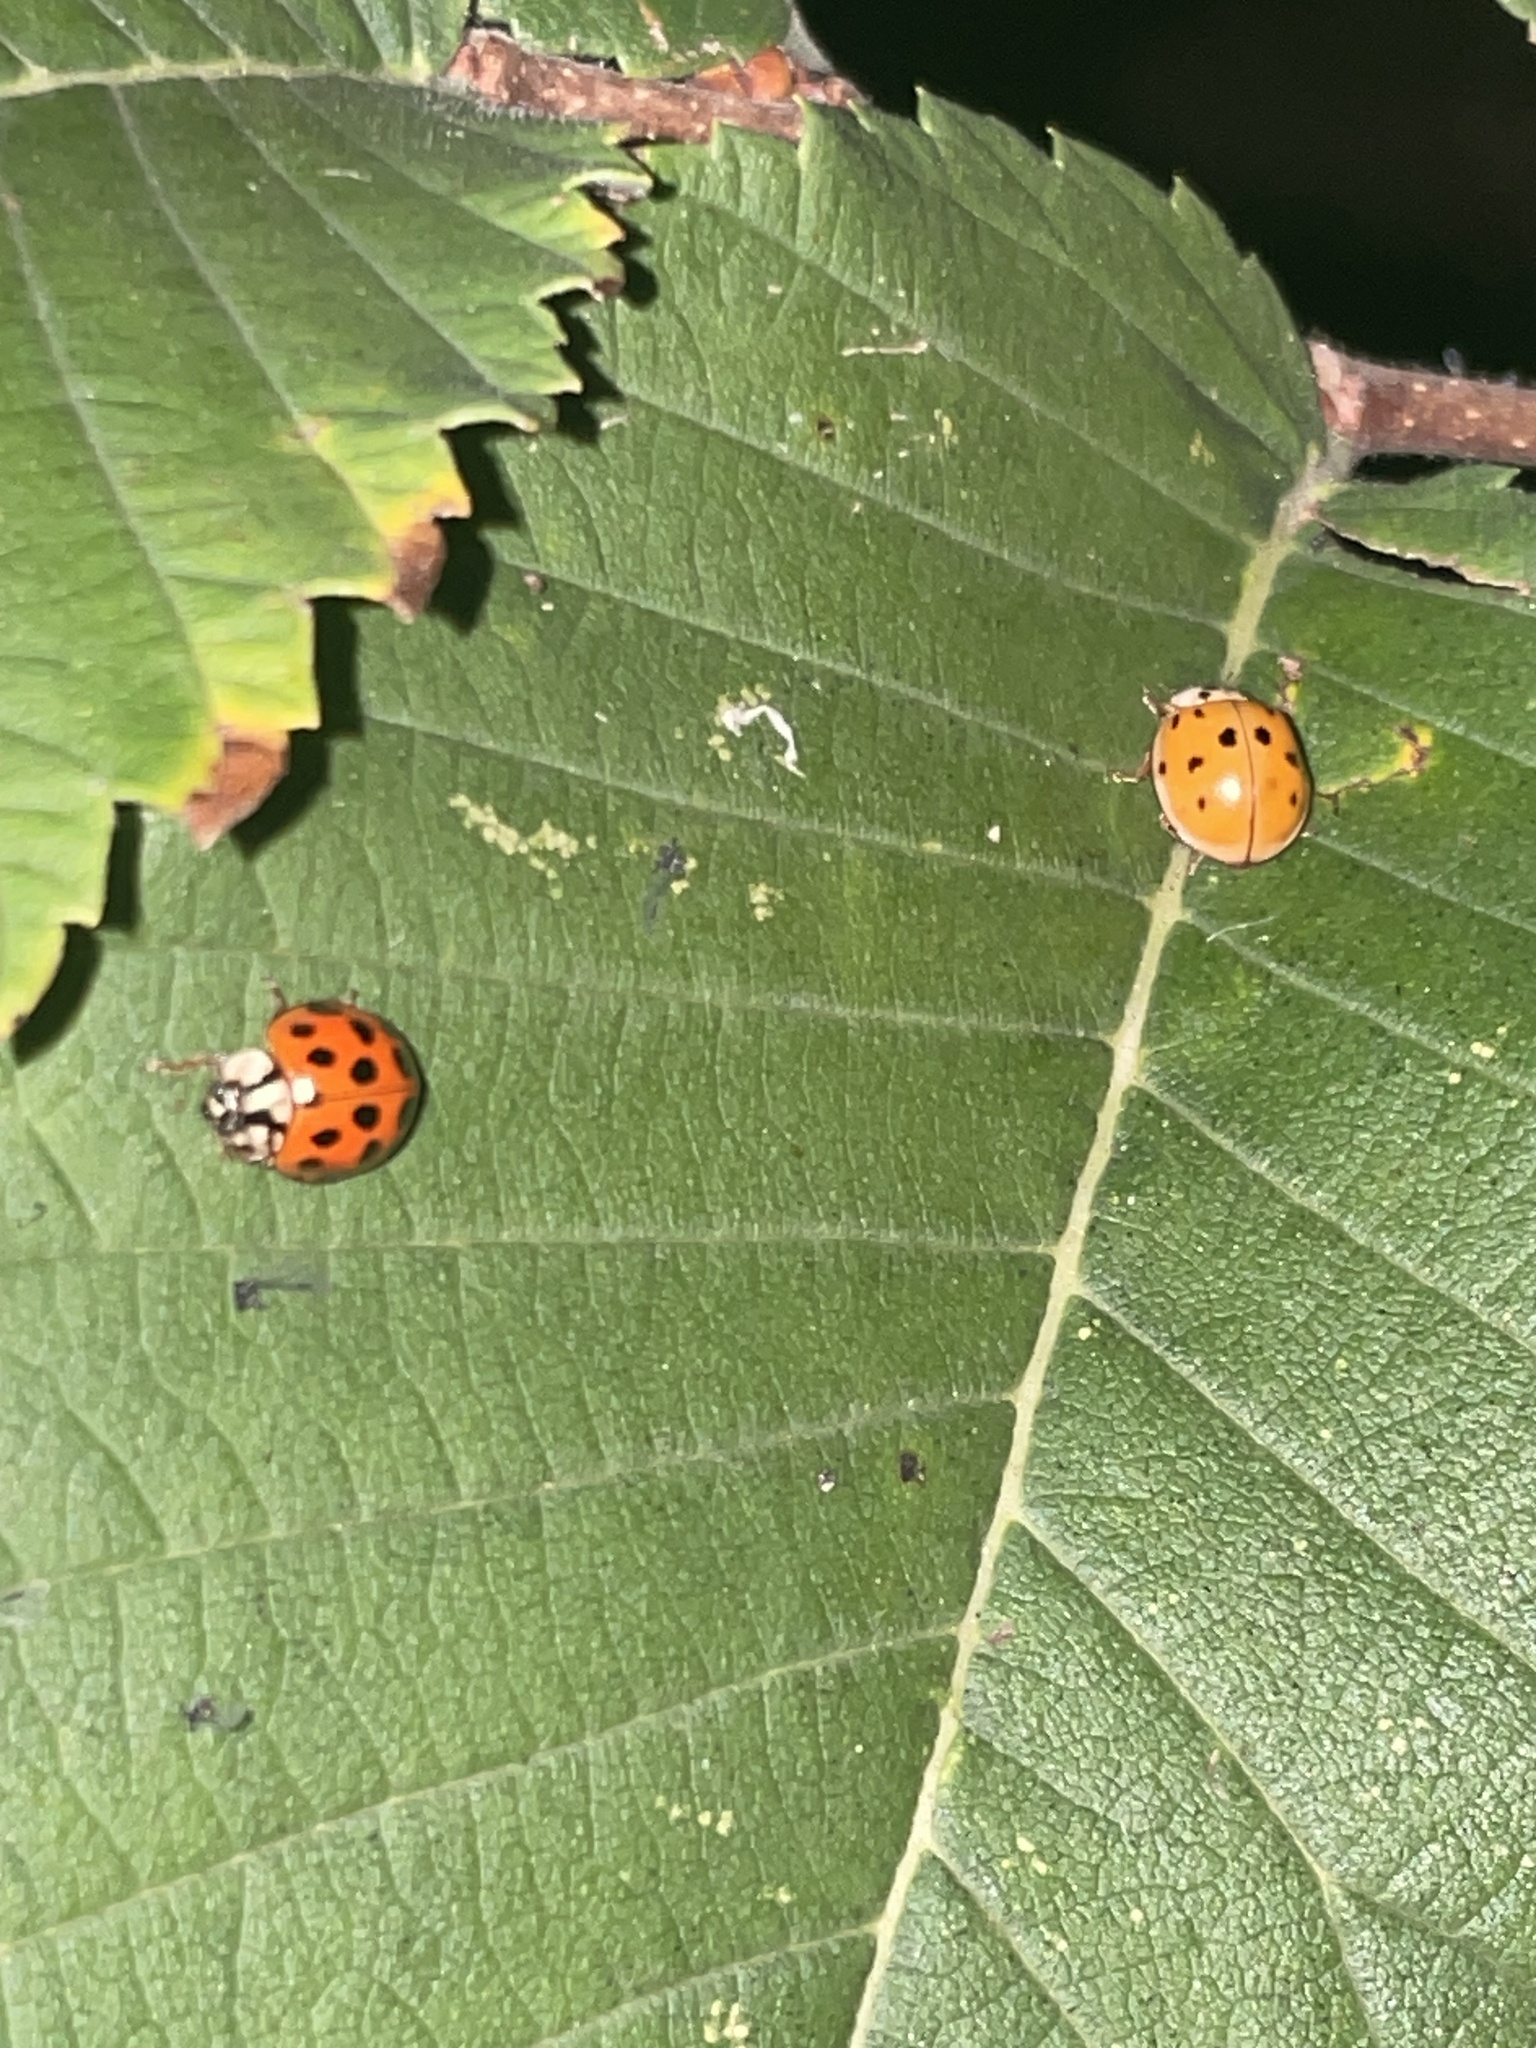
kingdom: Animalia
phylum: Arthropoda
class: Insecta
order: Coleoptera
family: Coccinellidae
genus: Harmonia
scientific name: Harmonia axyridis
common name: Harlequin ladybird
